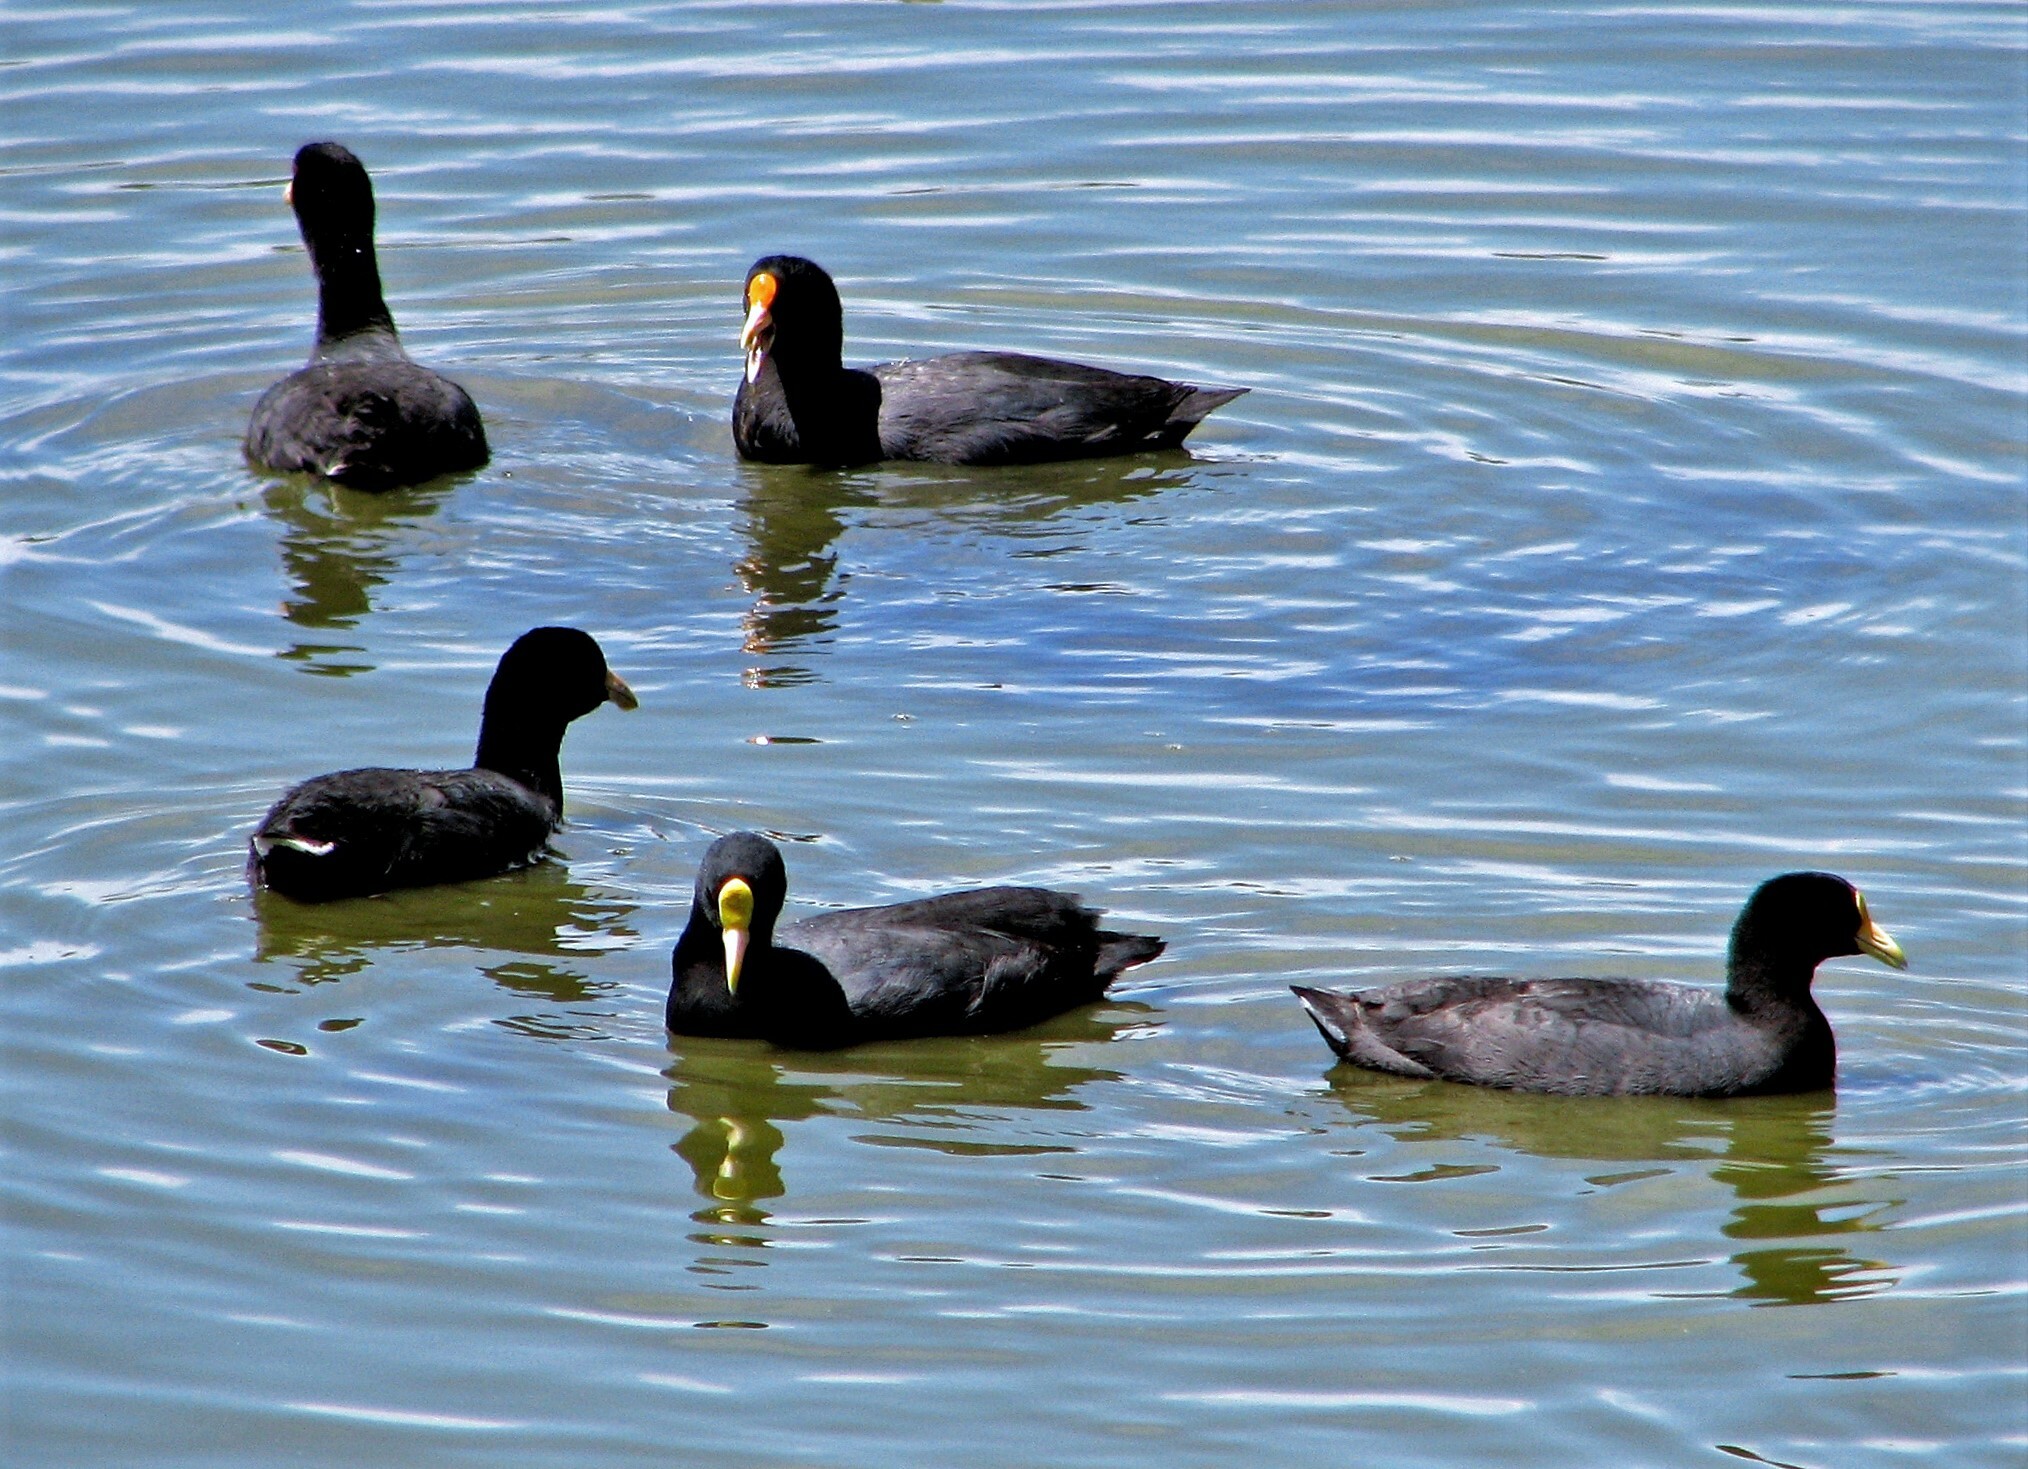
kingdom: Animalia
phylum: Chordata
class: Aves
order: Gruiformes
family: Rallidae
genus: Fulica
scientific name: Fulica leucoptera
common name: White-winged coot
